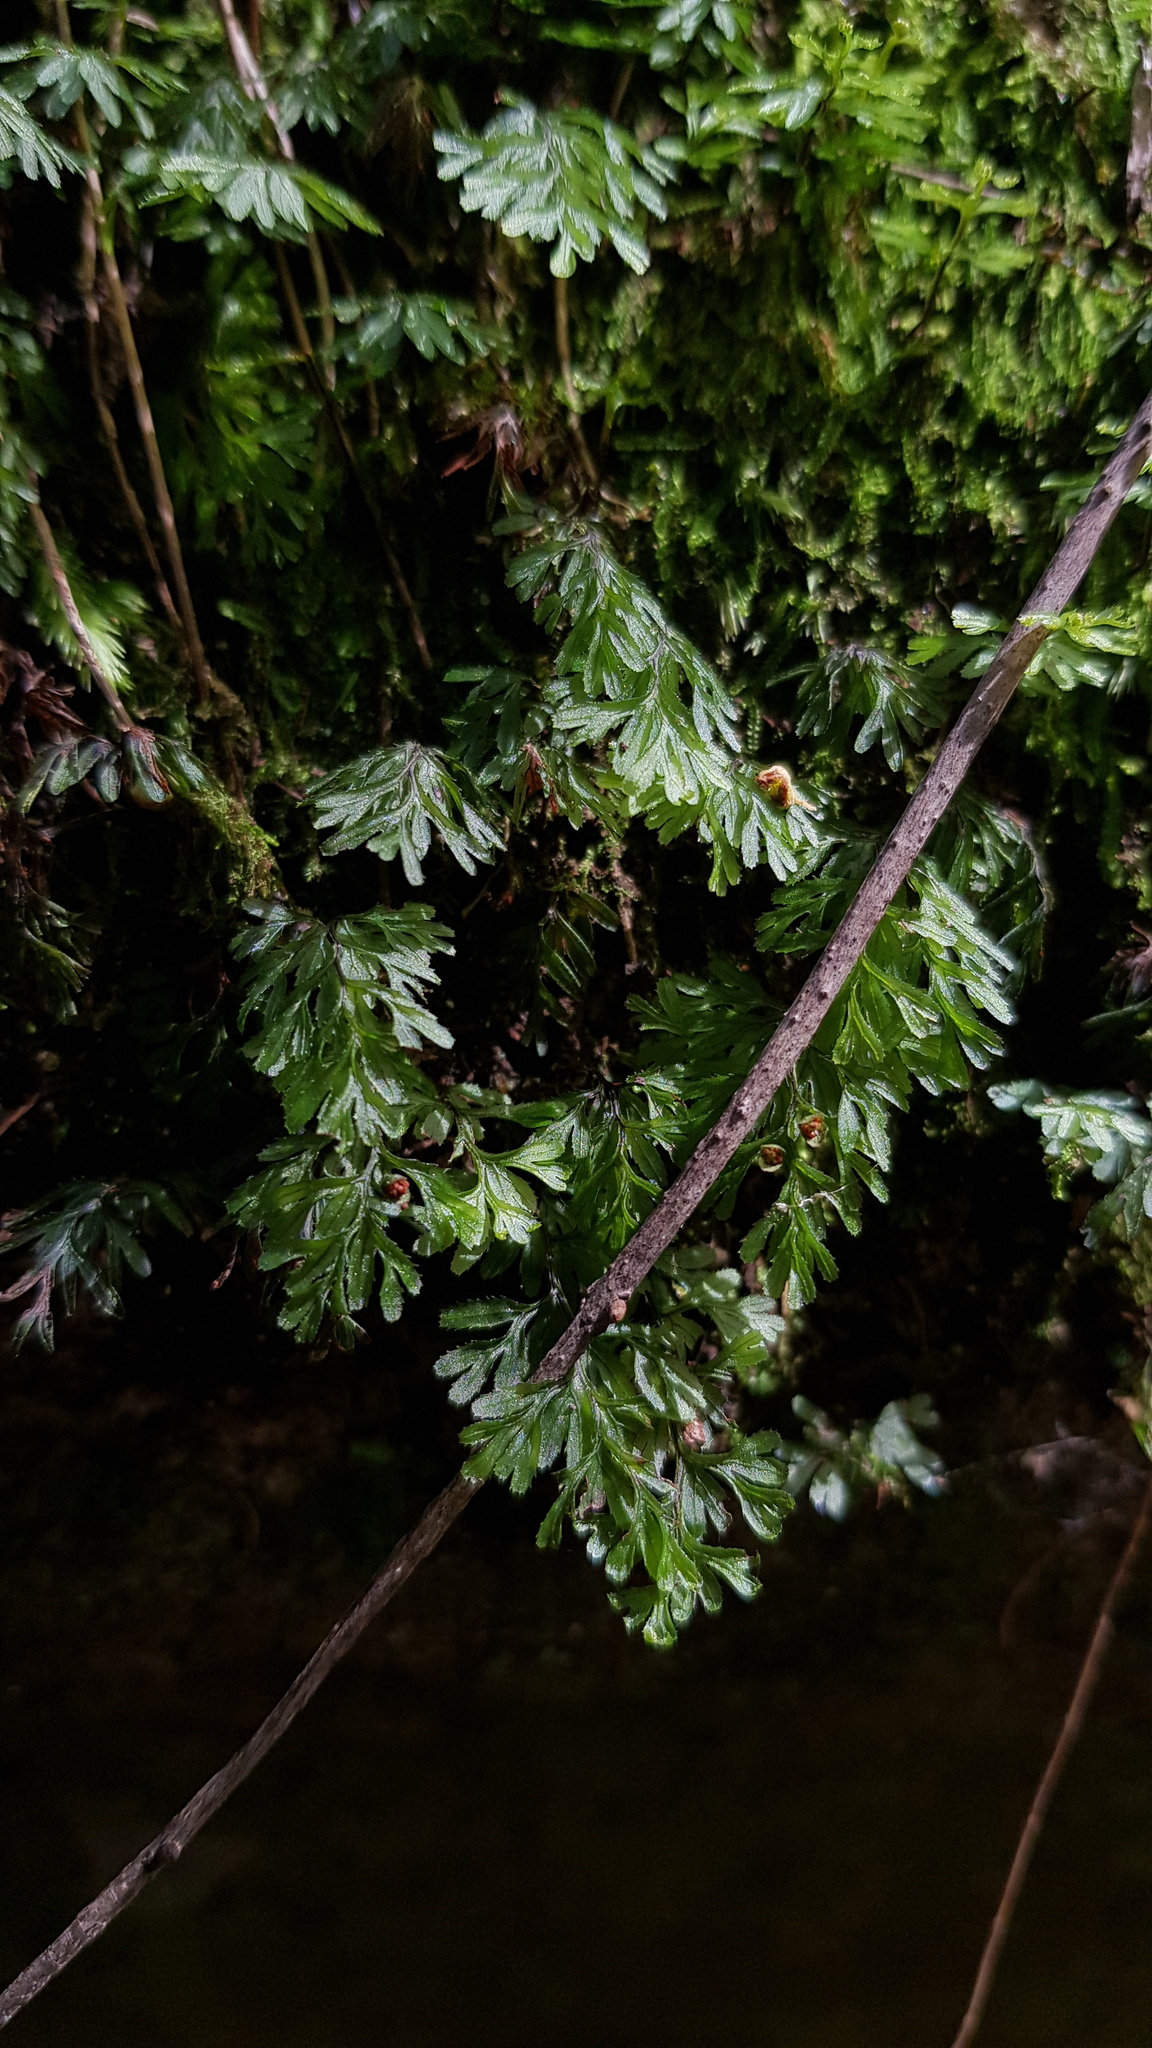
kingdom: Plantae
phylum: Tracheophyta
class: Polypodiopsida
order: Hymenophyllales
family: Hymenophyllaceae
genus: Hymenophyllum
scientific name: Hymenophyllum cupressiforme
